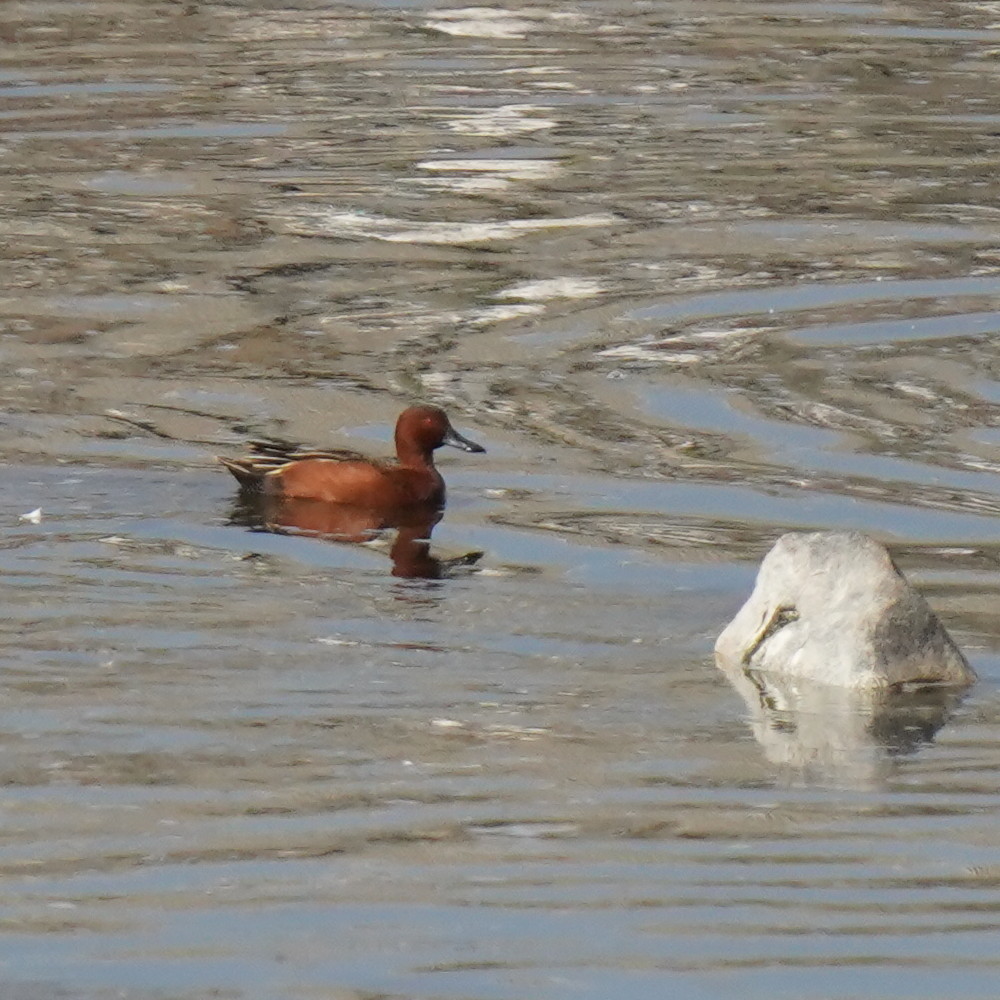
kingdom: Animalia
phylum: Chordata
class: Aves
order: Anseriformes
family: Anatidae
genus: Spatula
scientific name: Spatula cyanoptera
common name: Cinnamon teal
